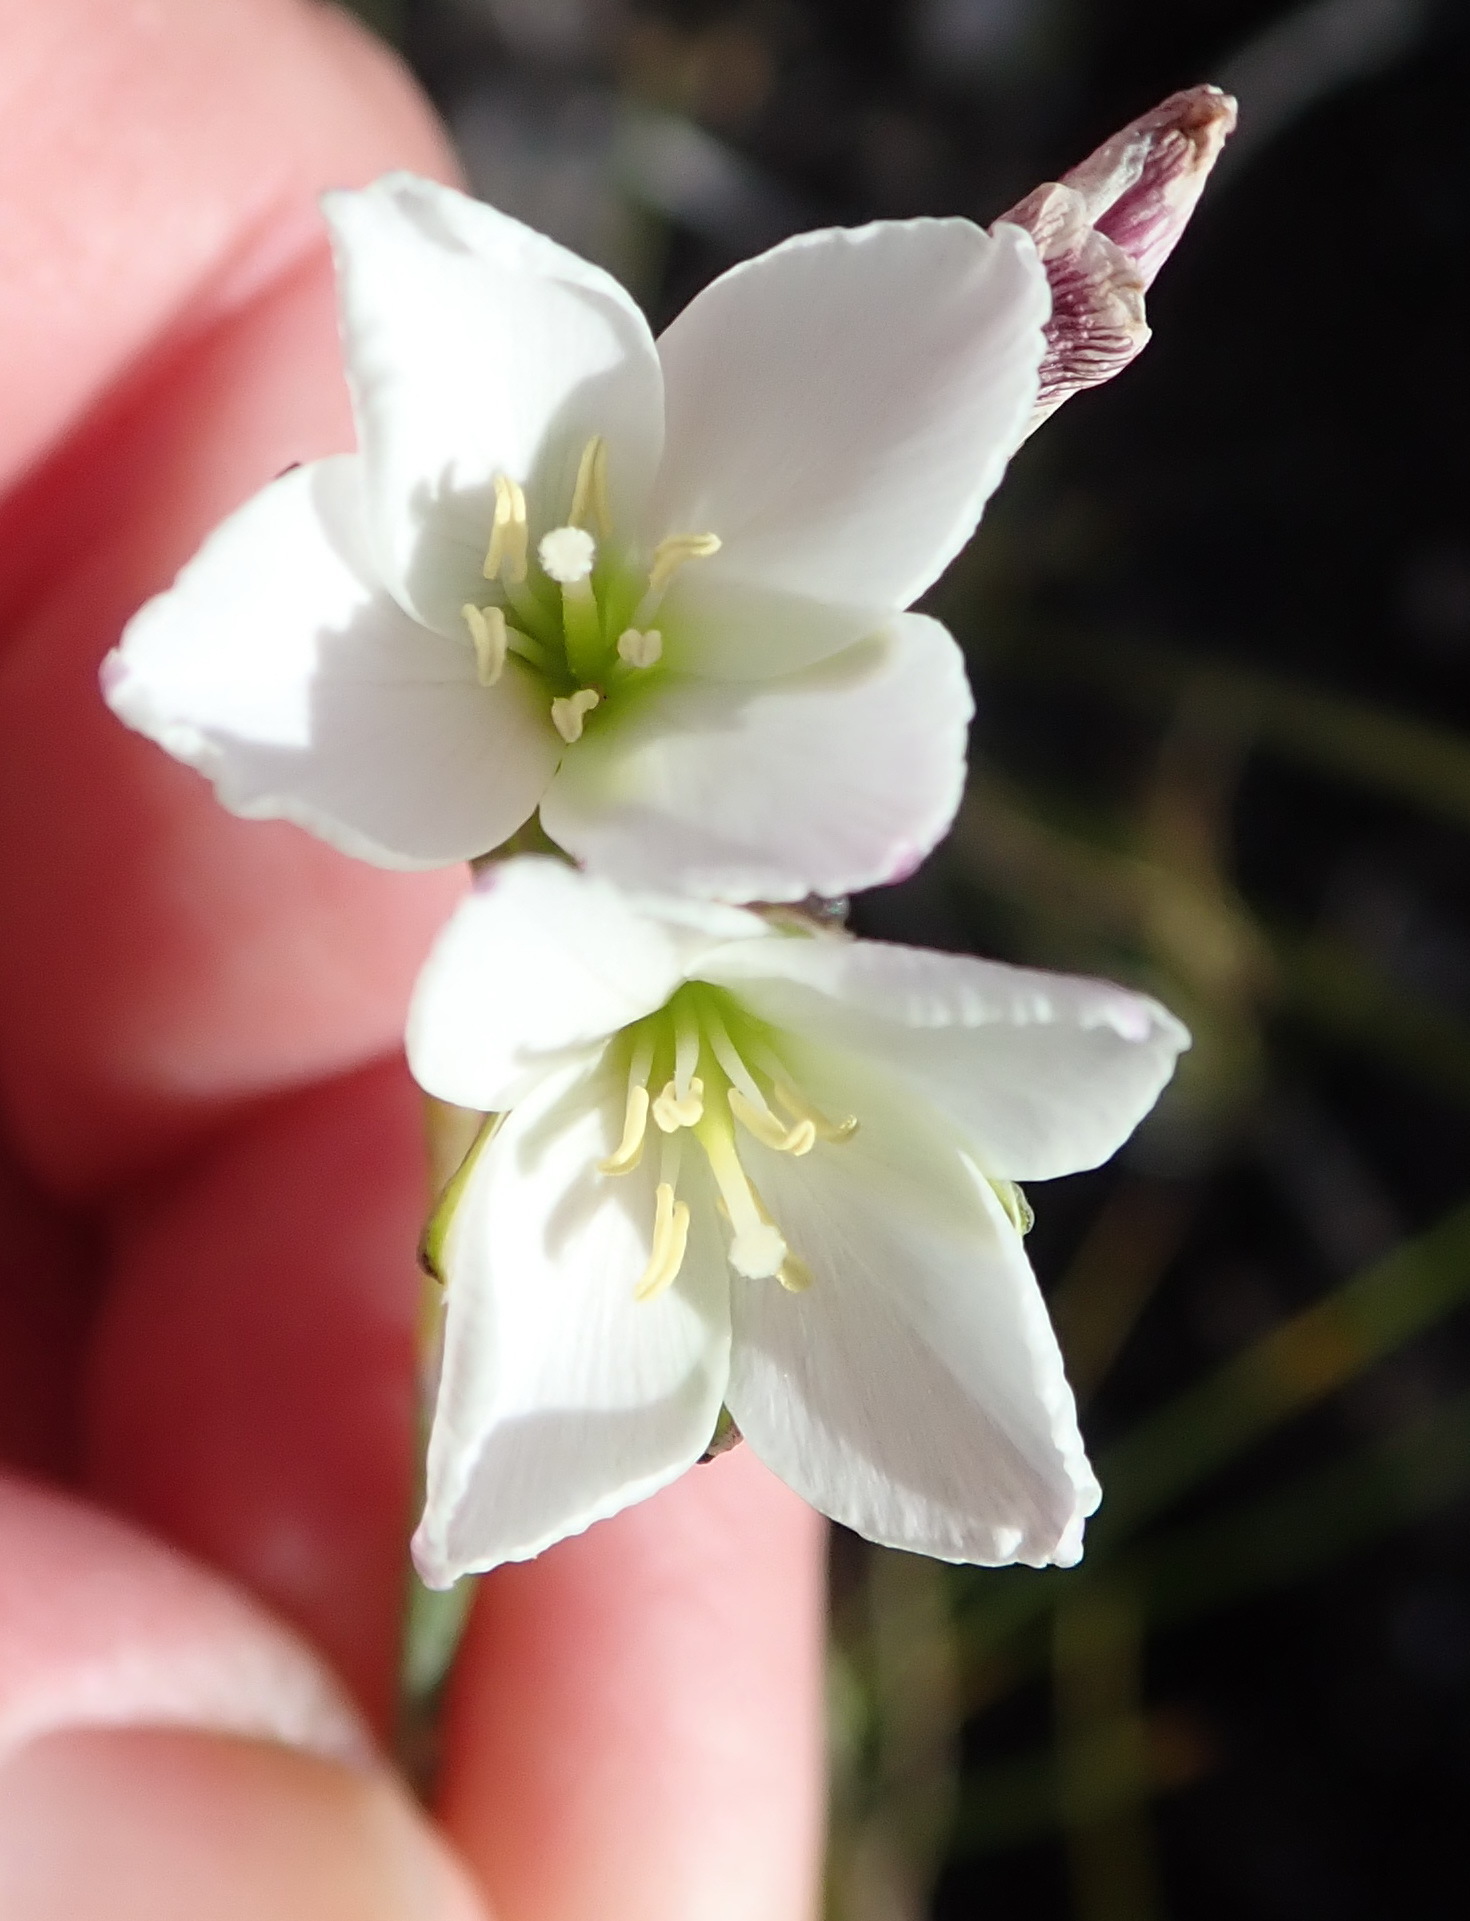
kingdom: Plantae
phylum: Tracheophyta
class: Magnoliopsida
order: Brassicales
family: Brassicaceae
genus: Heliophila
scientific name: Heliophila macra
